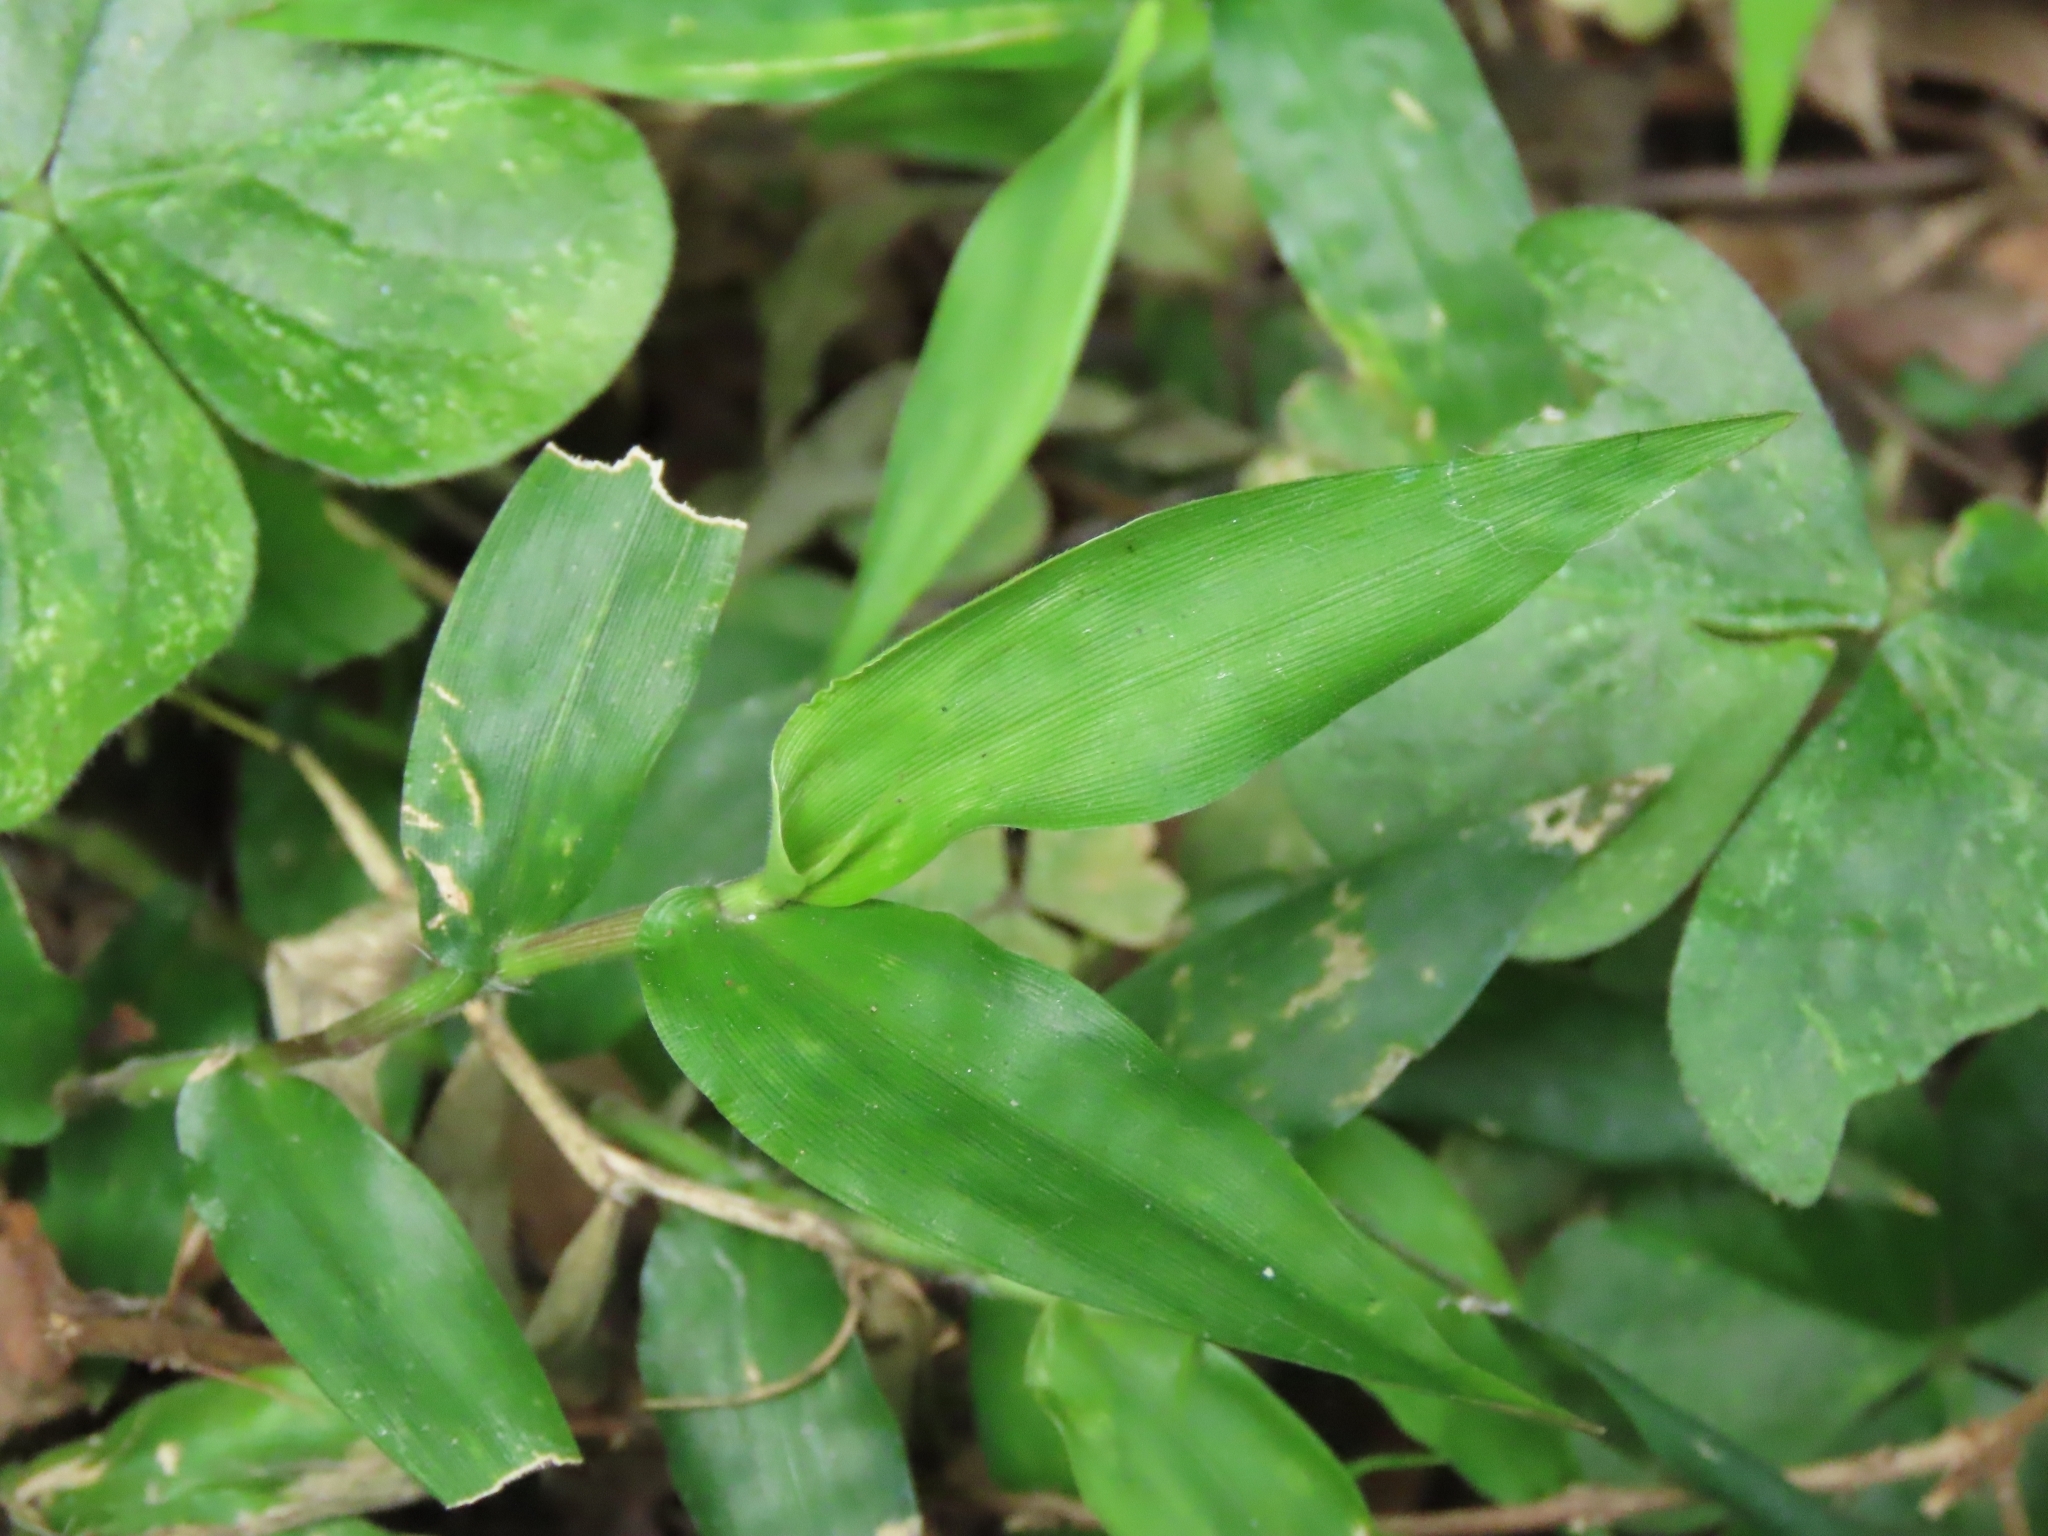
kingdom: Plantae
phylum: Tracheophyta
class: Liliopsida
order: Poales
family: Poaceae
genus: Oplismenus
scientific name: Oplismenus compositus
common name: Running mountain grass
